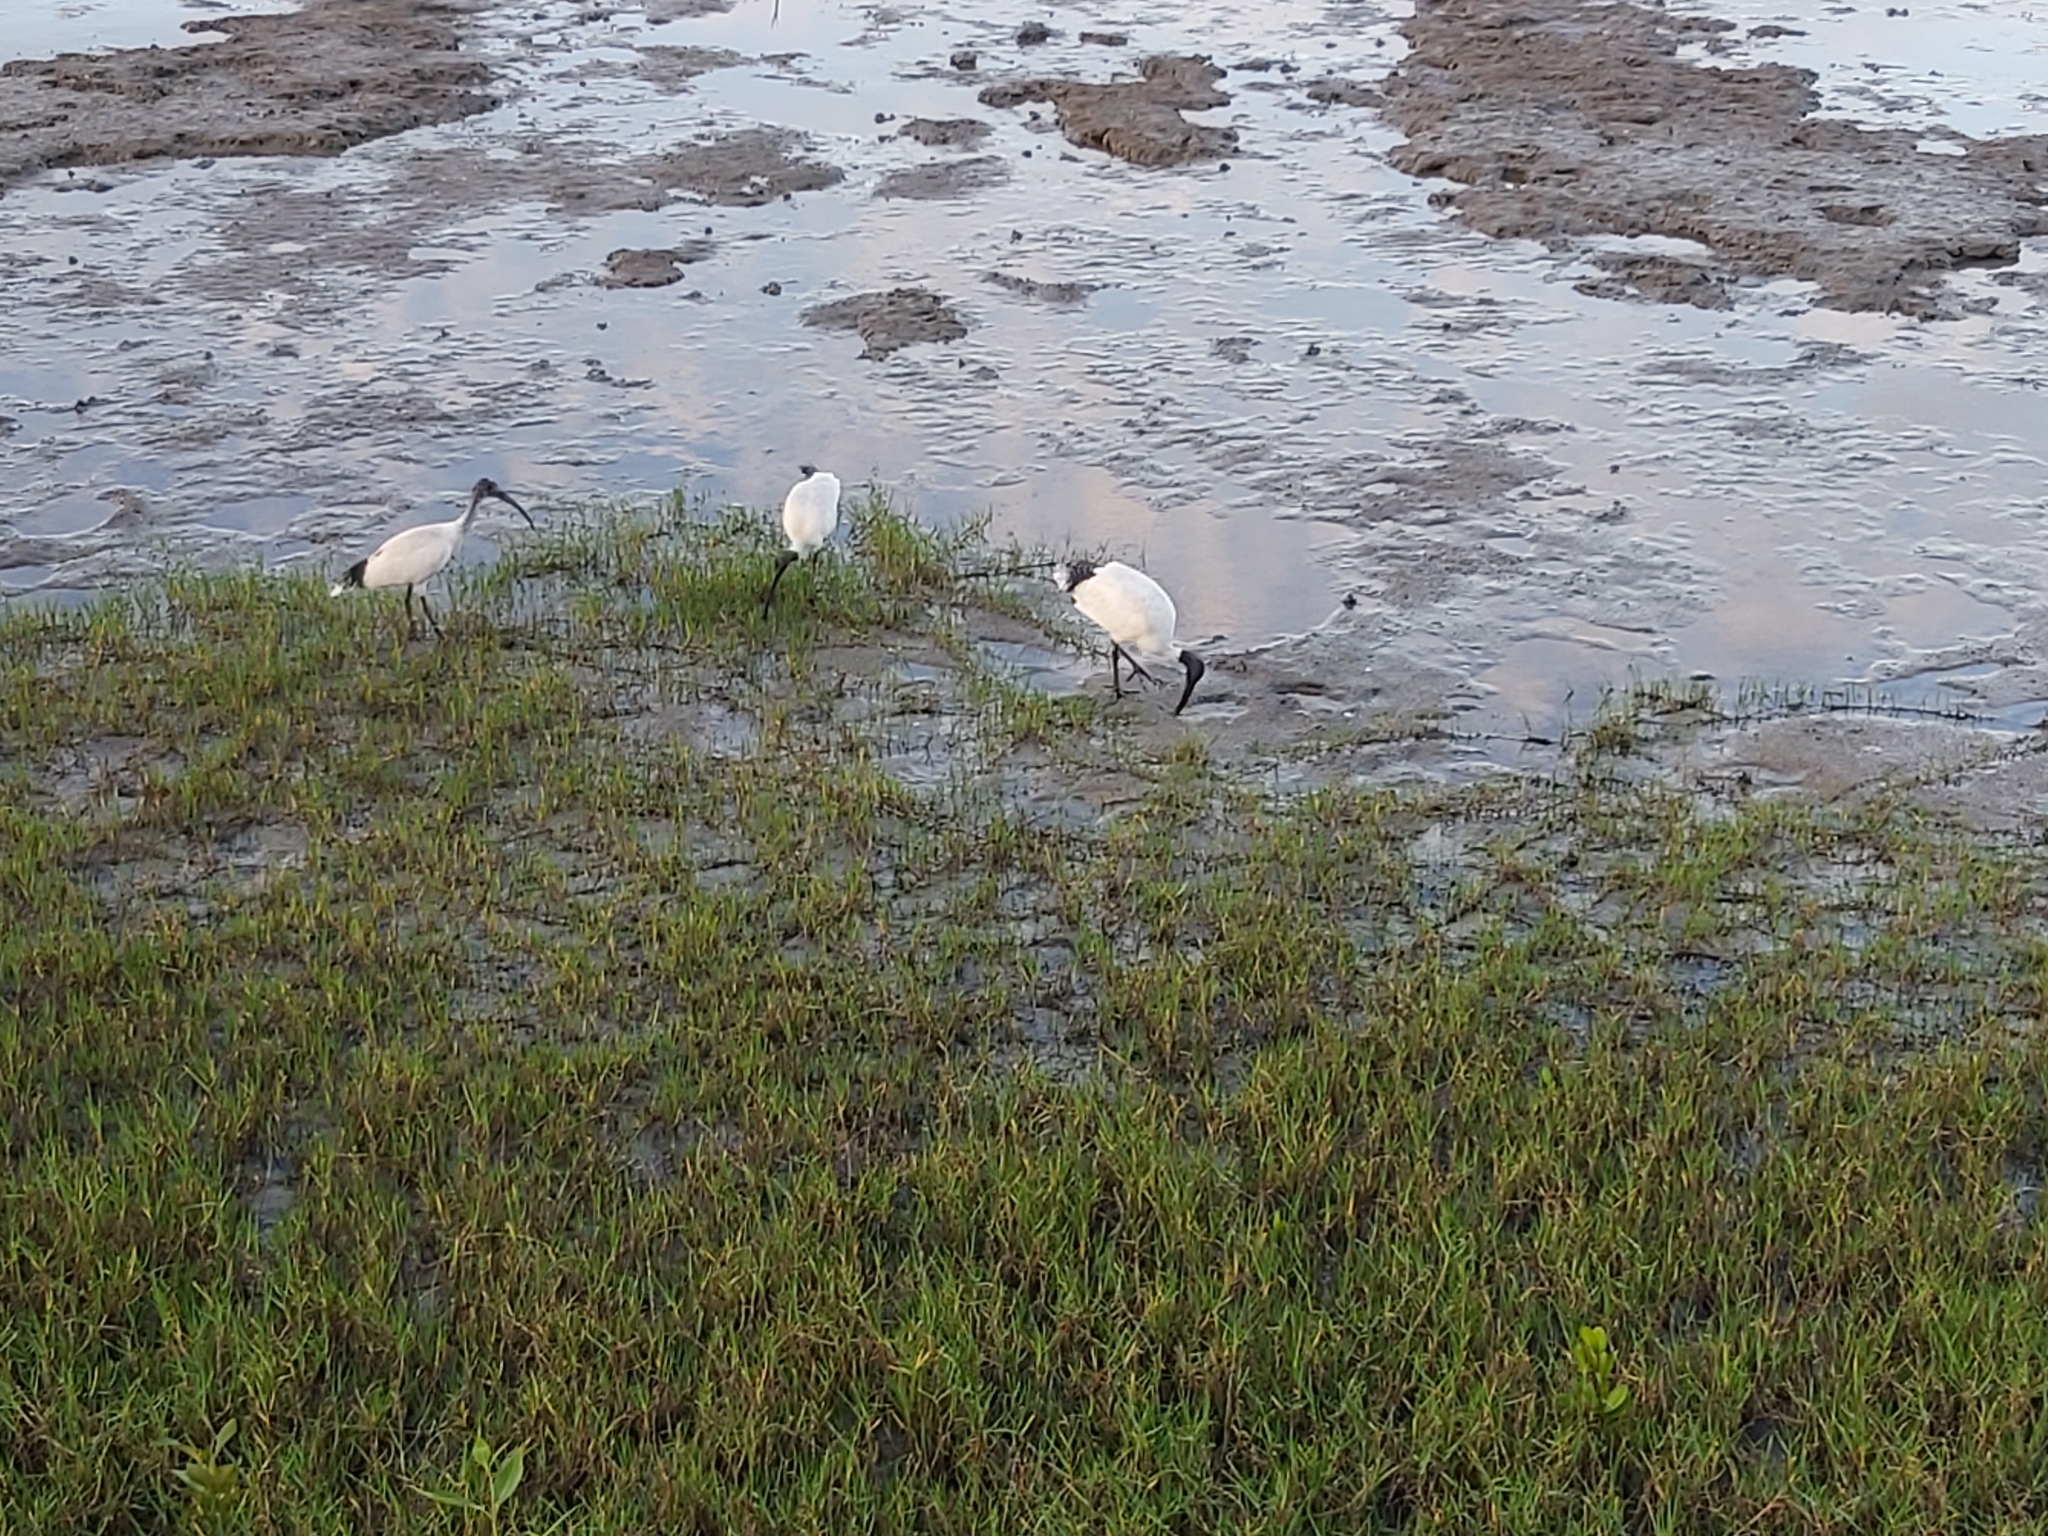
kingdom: Animalia
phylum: Chordata
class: Aves
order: Pelecaniformes
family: Threskiornithidae
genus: Threskiornis
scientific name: Threskiornis molucca
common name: Australian white ibis
